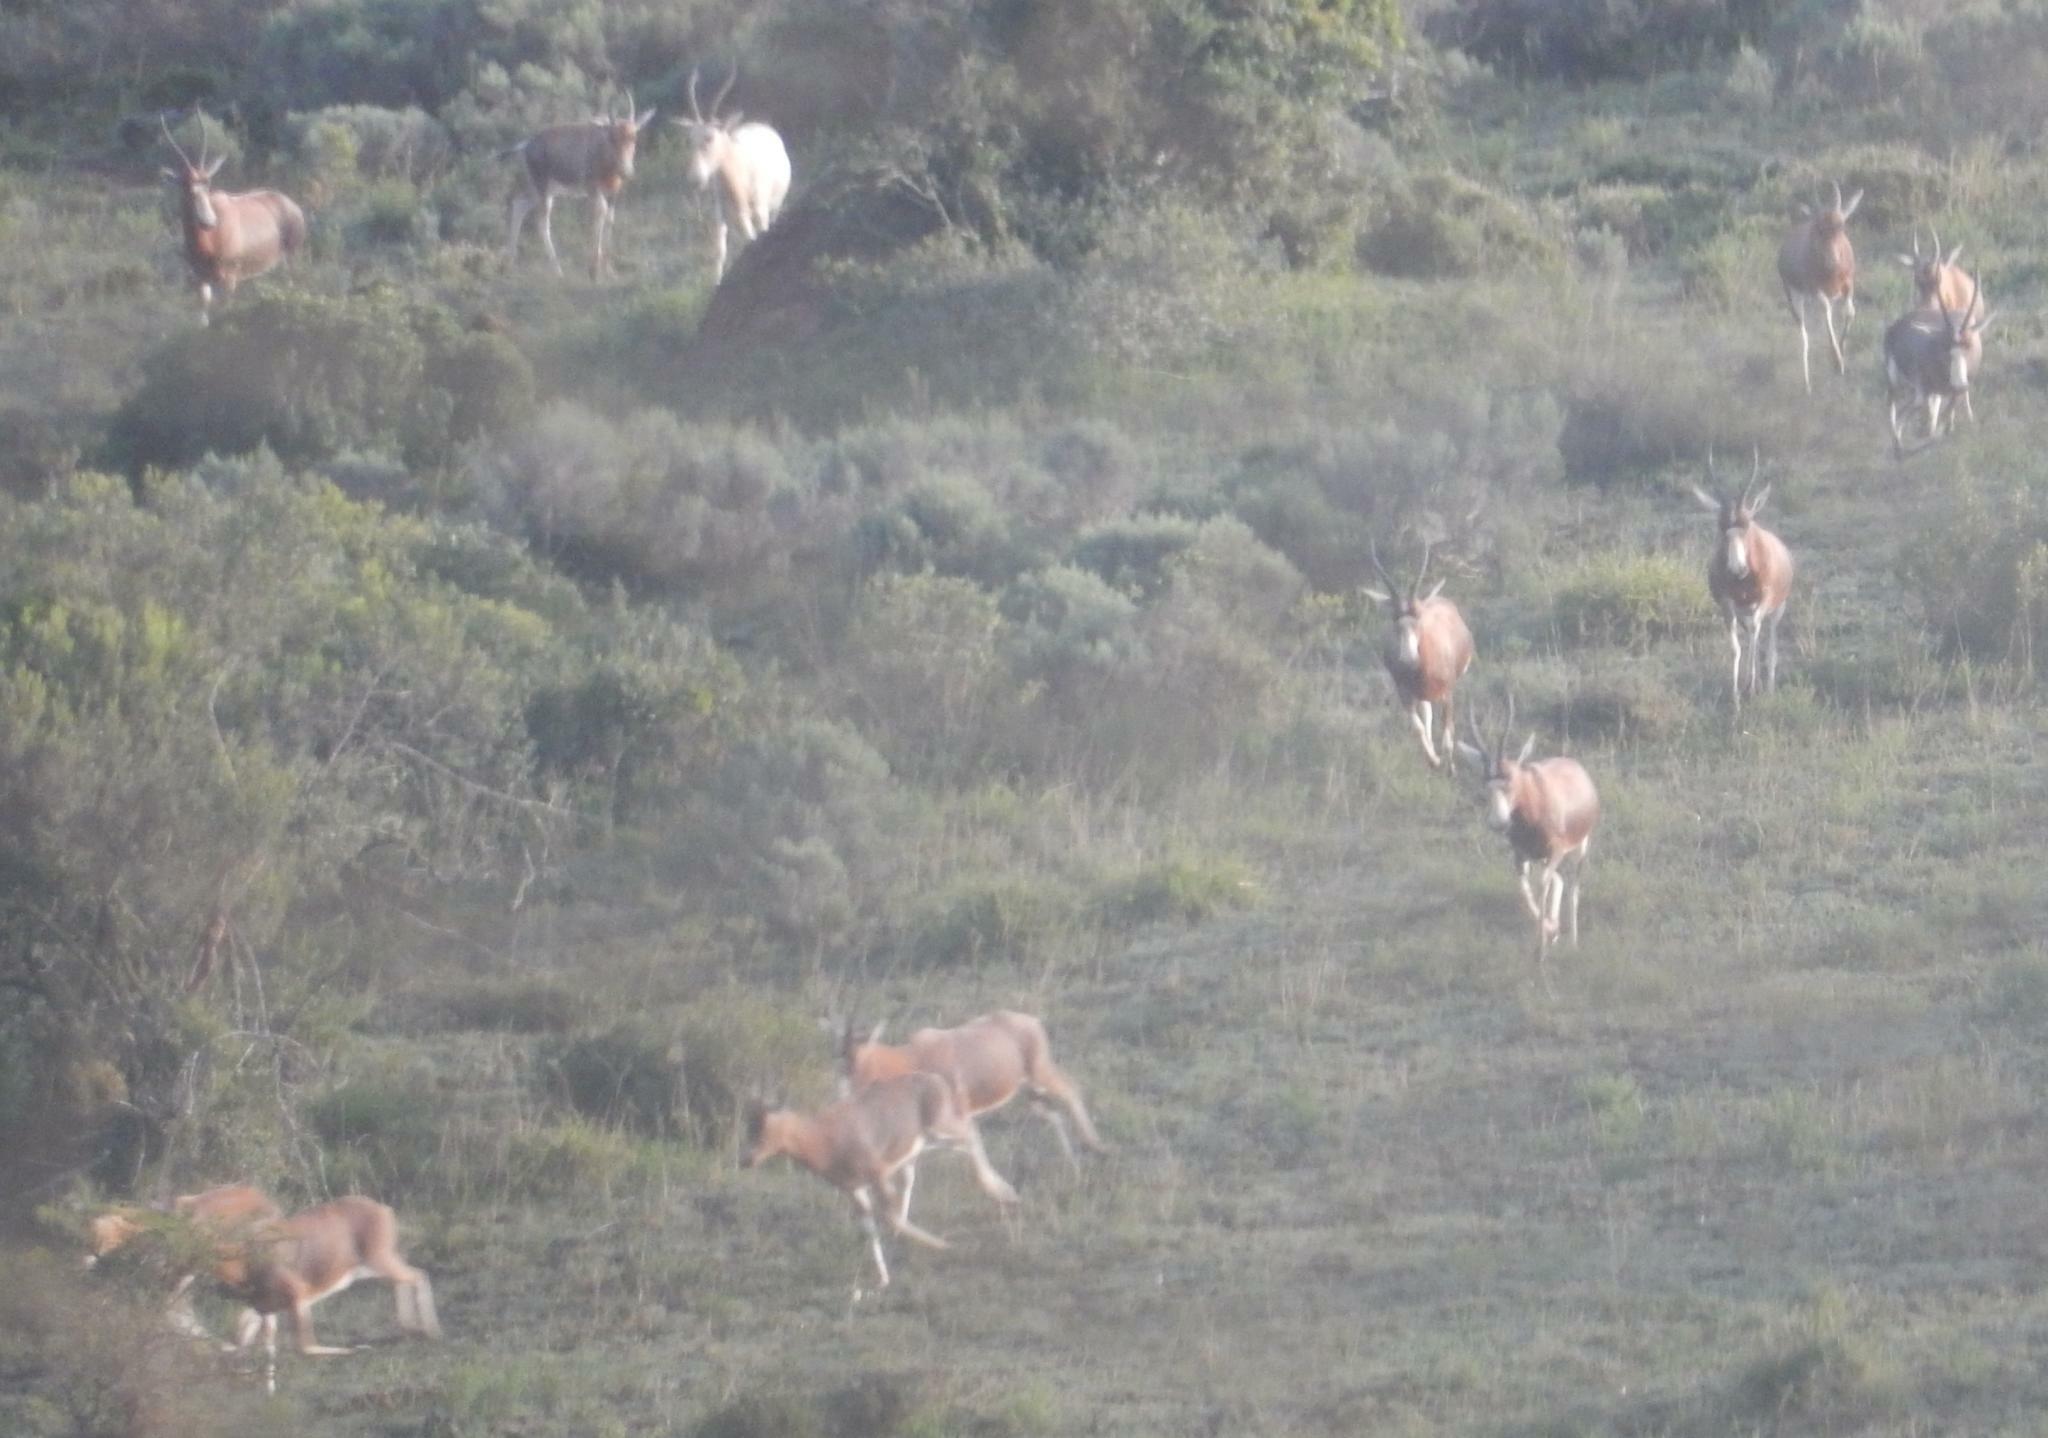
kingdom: Animalia
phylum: Chordata
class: Mammalia
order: Artiodactyla
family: Bovidae
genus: Damaliscus
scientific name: Damaliscus pygargus
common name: Bontebok
